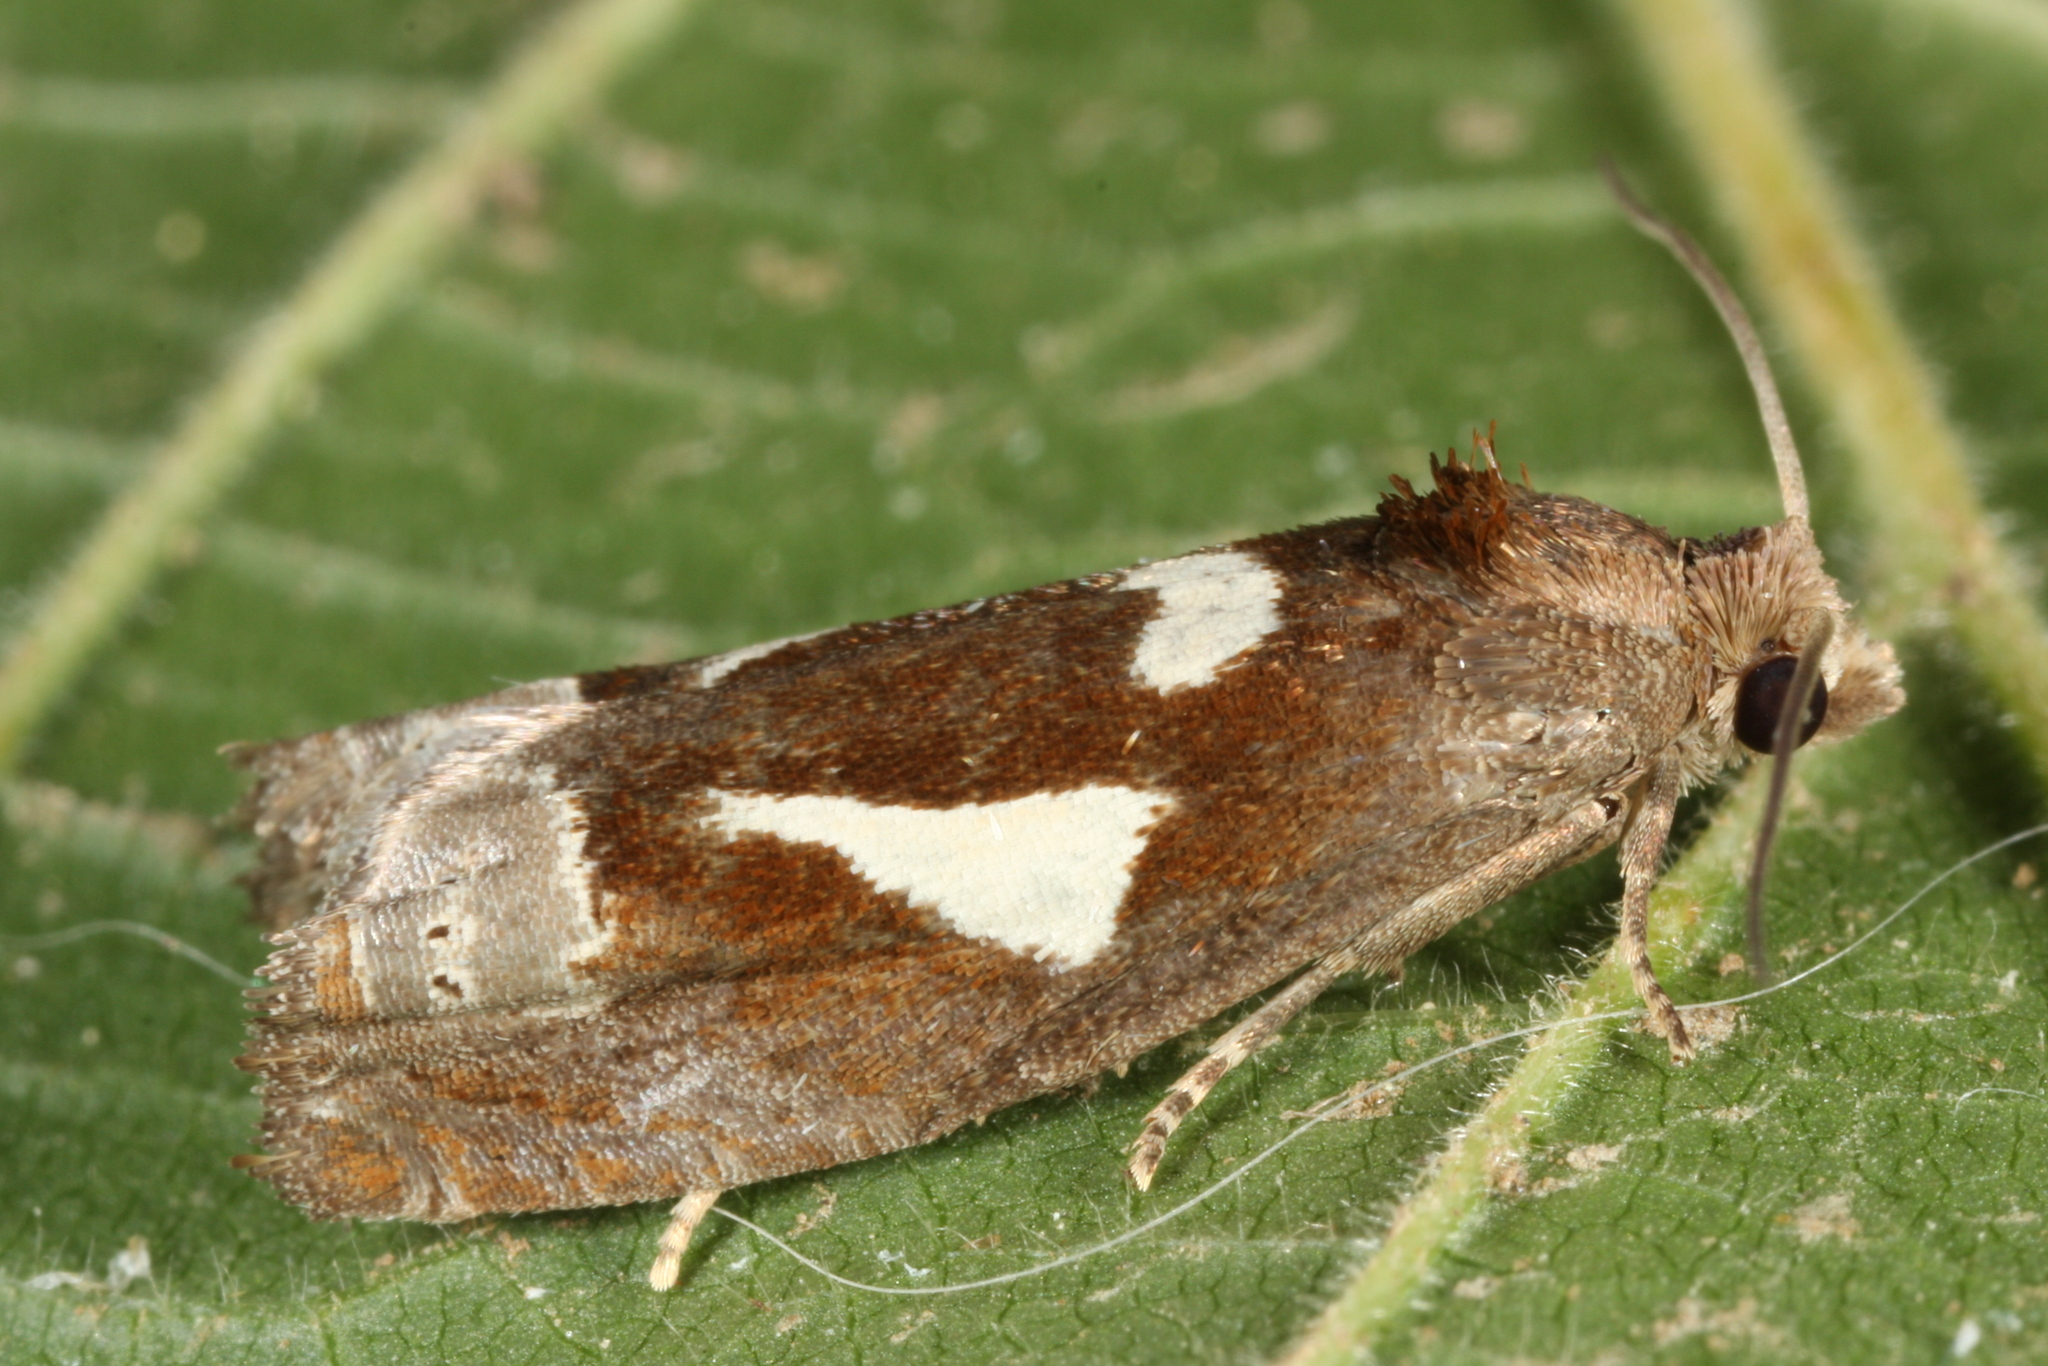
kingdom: Animalia
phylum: Arthropoda
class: Insecta
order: Lepidoptera
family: Tortricidae
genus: Epiblema
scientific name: Epiblema foenella
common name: White-foot bell
